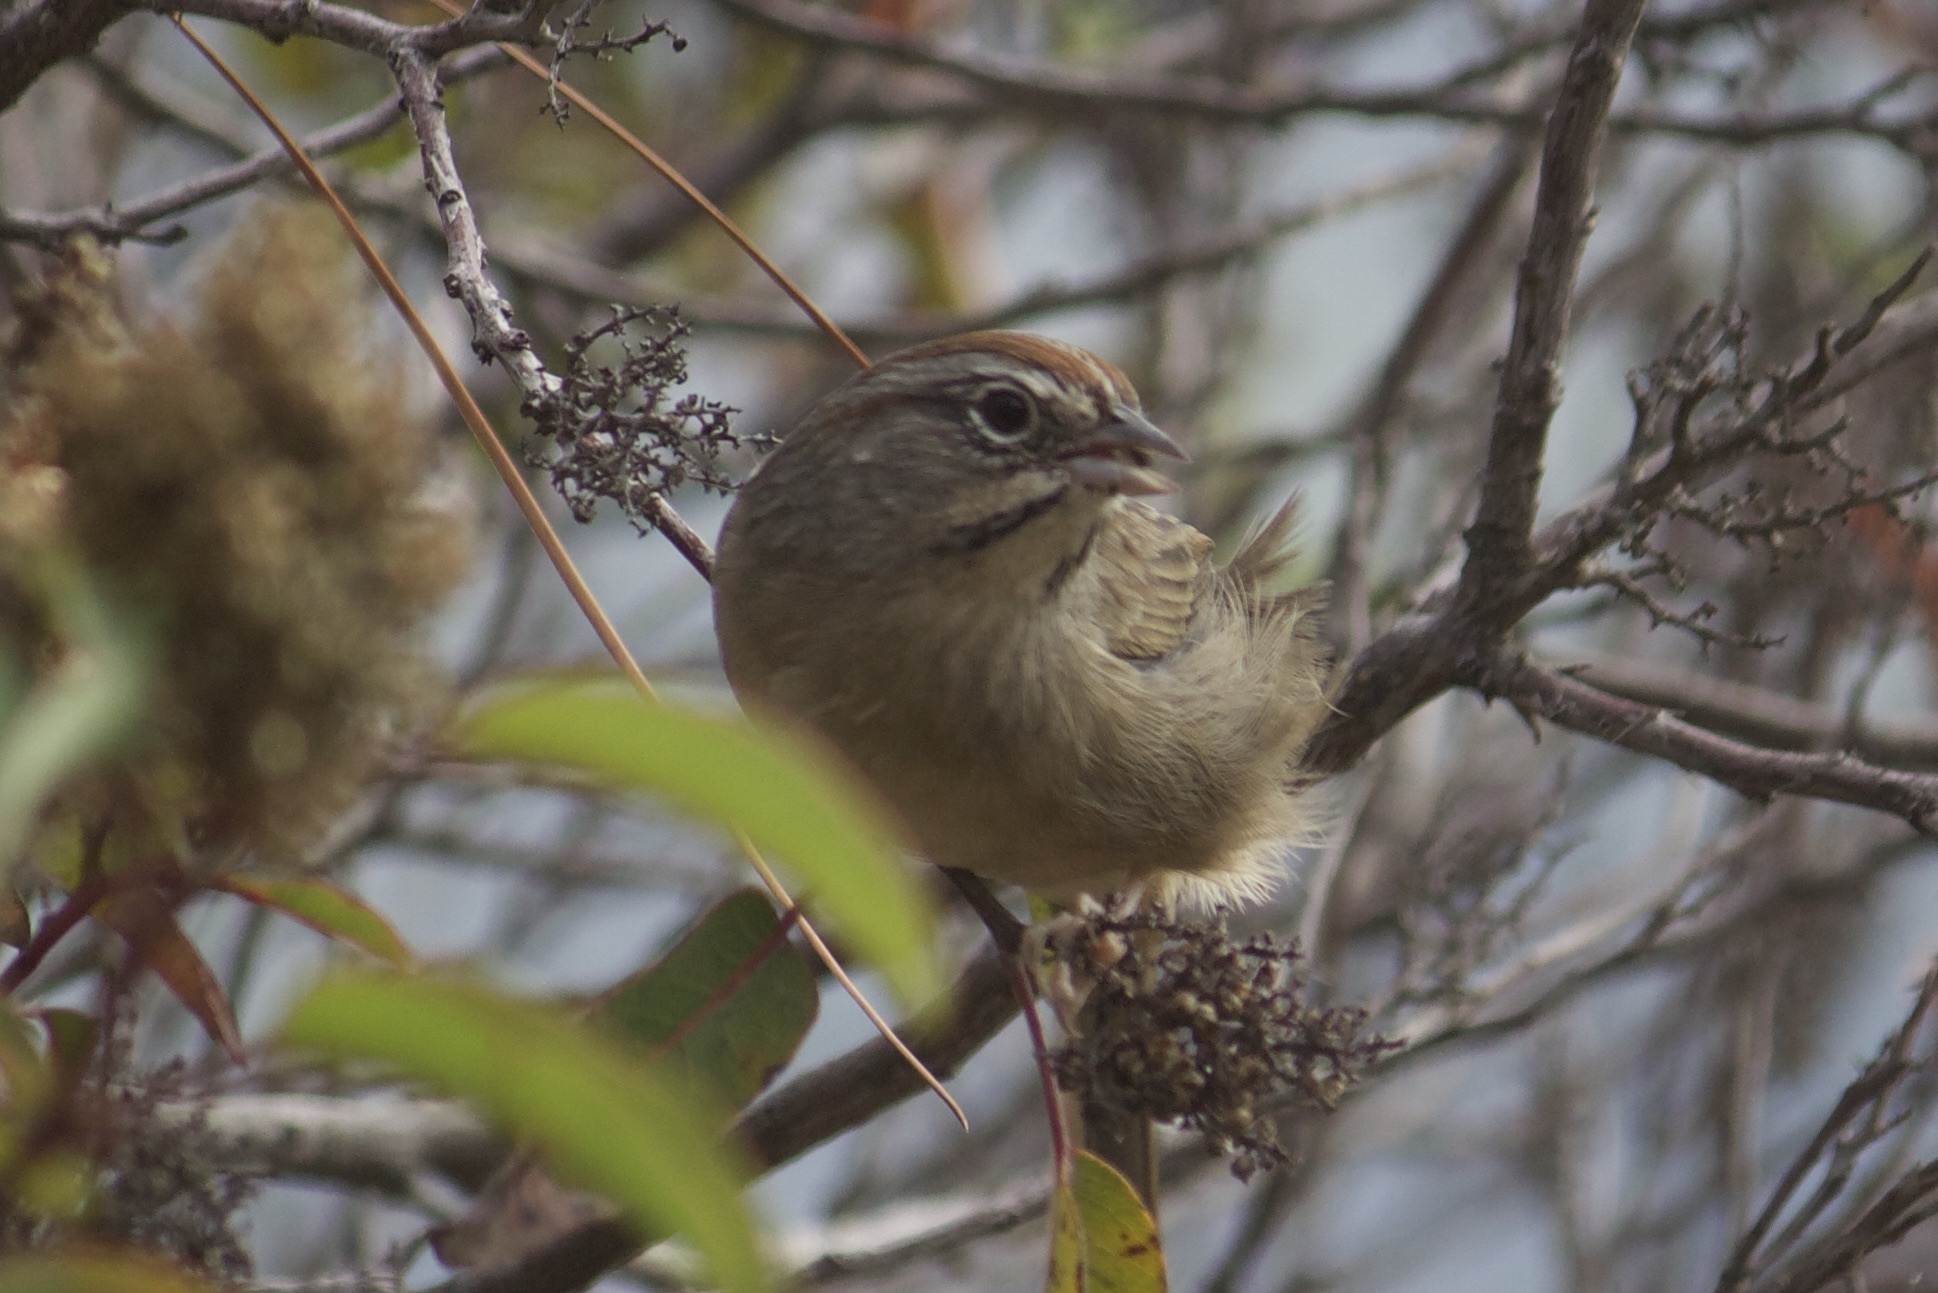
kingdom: Animalia
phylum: Chordata
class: Aves
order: Passeriformes
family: Passerellidae
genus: Aimophila
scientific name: Aimophila ruficeps
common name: Rufous-crowned sparrow
